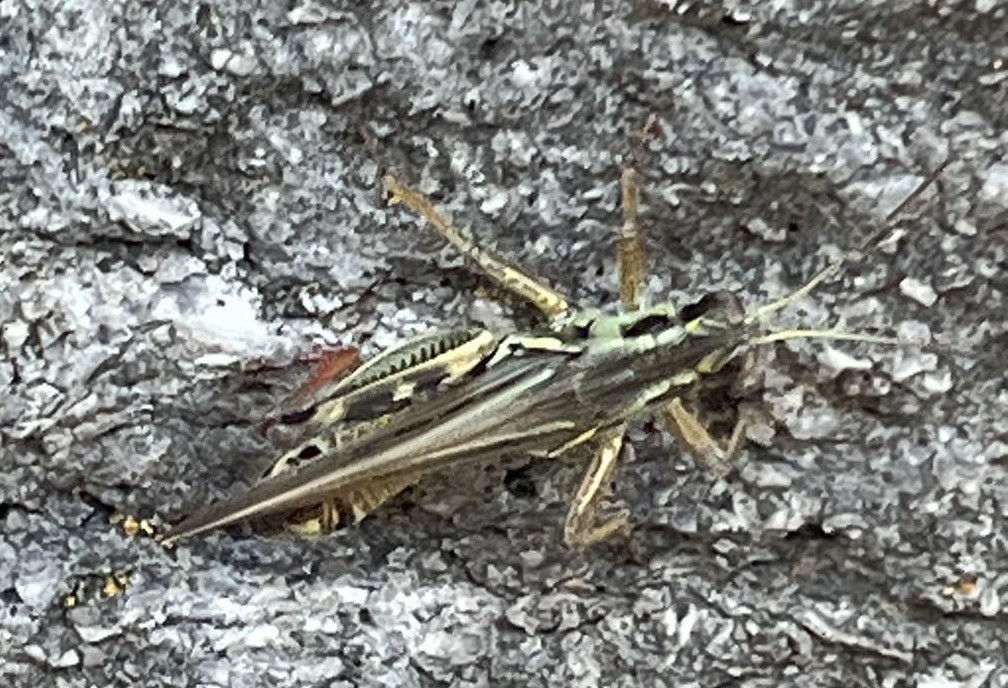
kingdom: Animalia
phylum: Arthropoda
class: Insecta
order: Orthoptera
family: Acrididae
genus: Melanoplus
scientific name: Melanoplus femurrubrum
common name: Red-legged grasshopper
